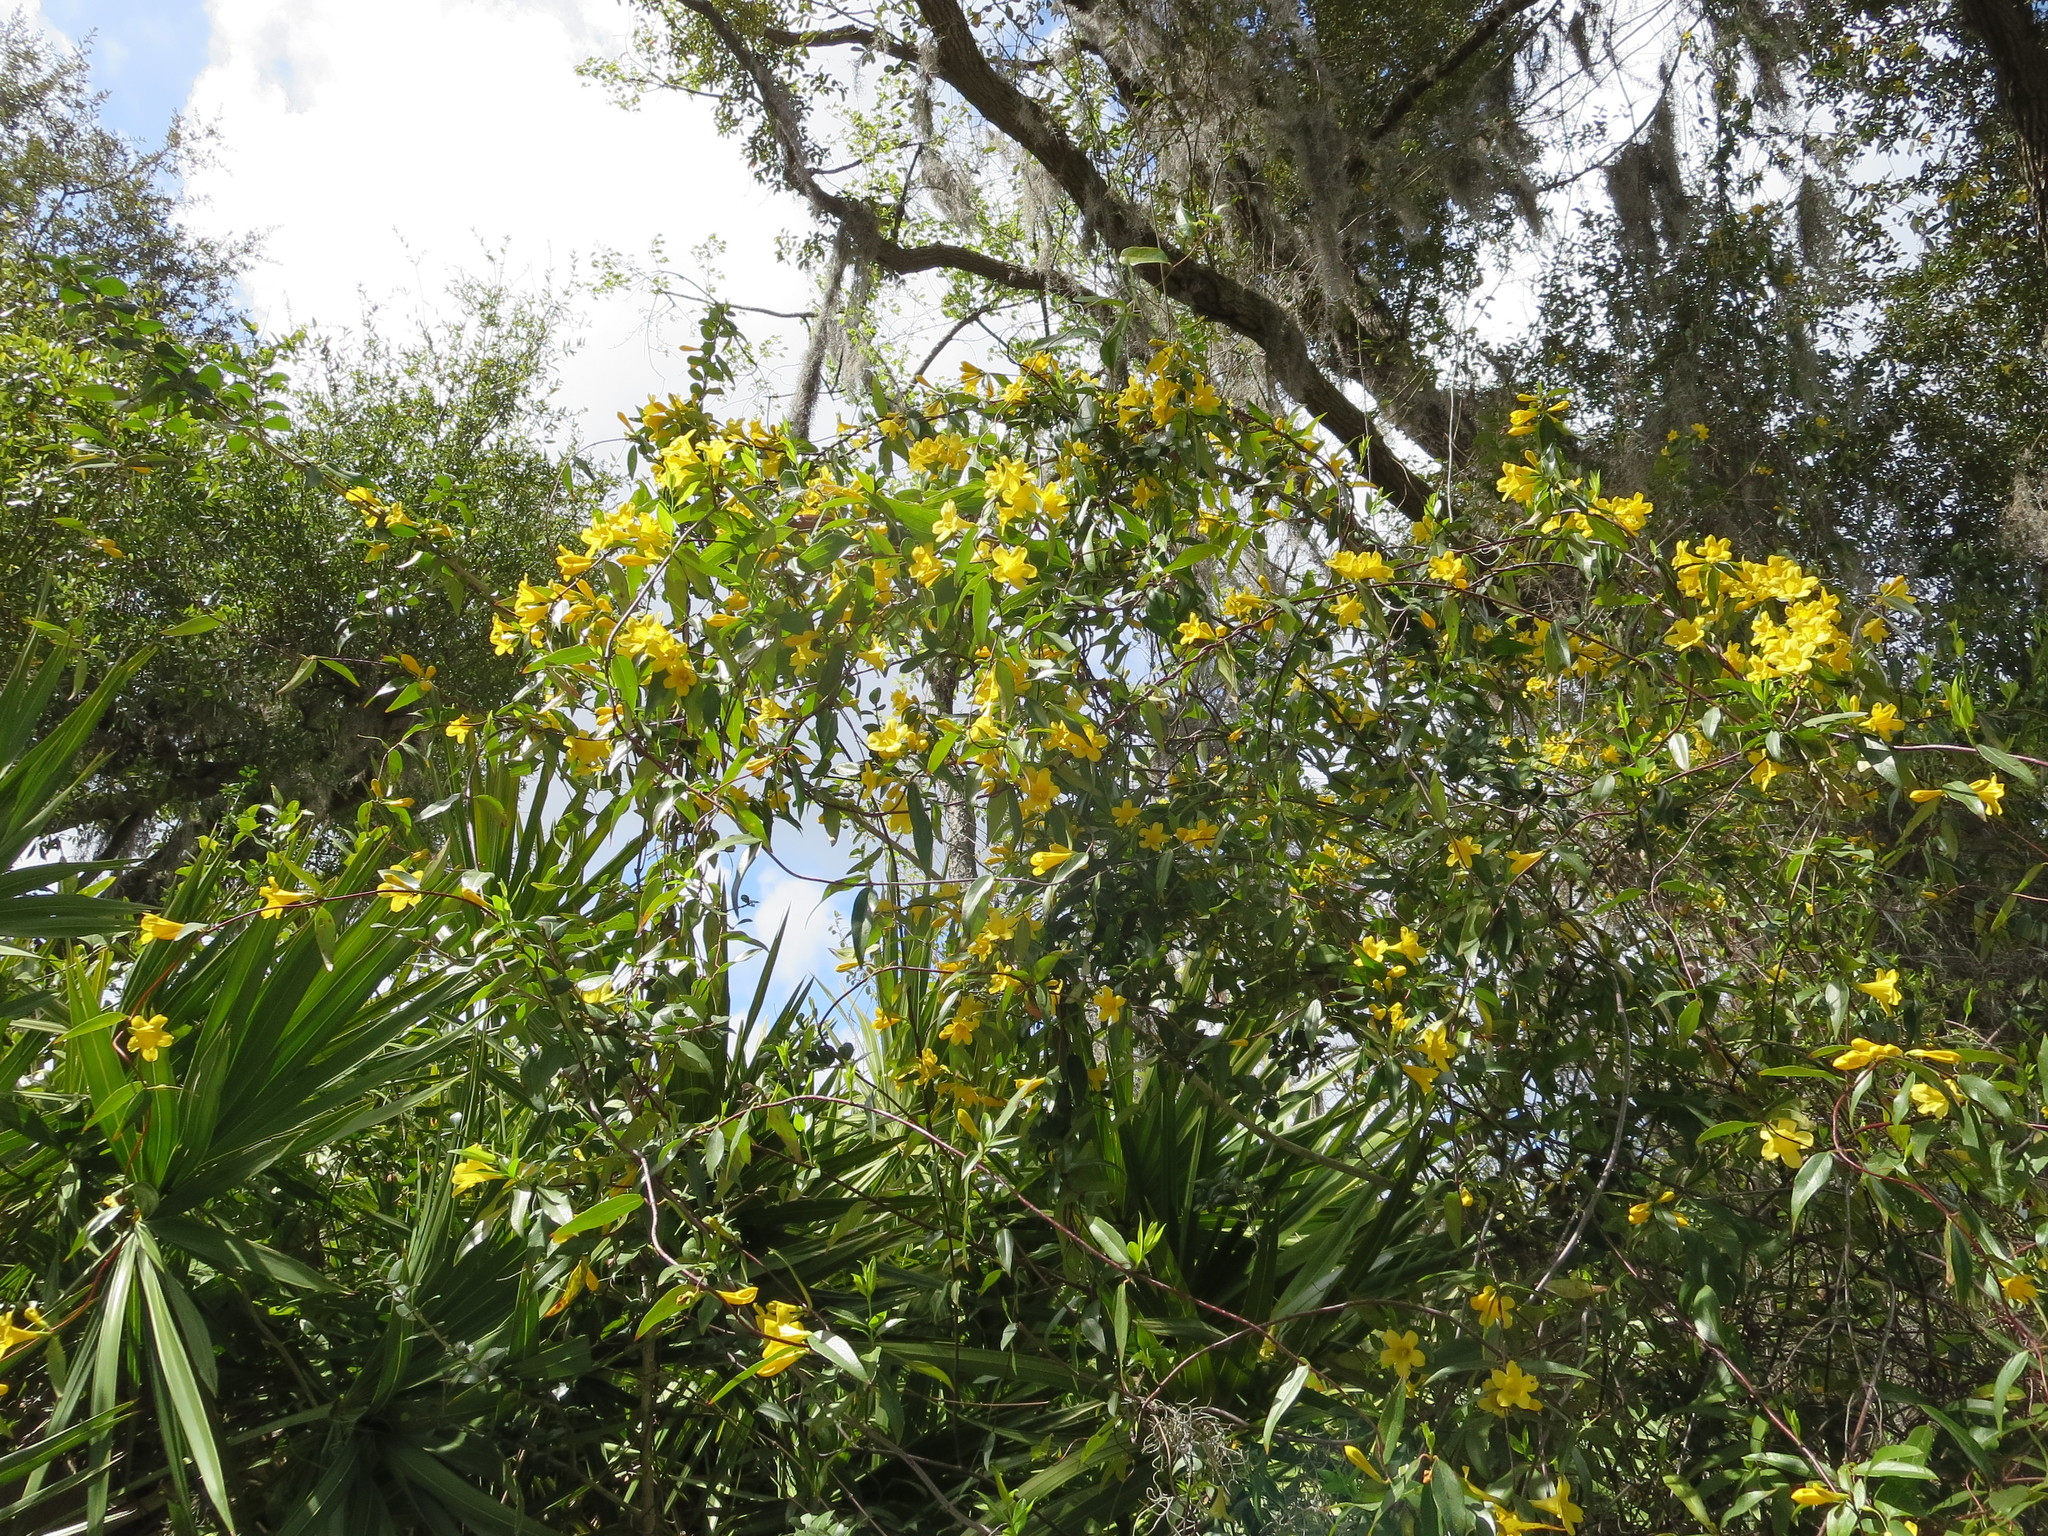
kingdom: Plantae
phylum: Tracheophyta
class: Magnoliopsida
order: Gentianales
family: Gelsemiaceae
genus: Gelsemium
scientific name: Gelsemium sempervirens
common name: Carolina-jasmine
